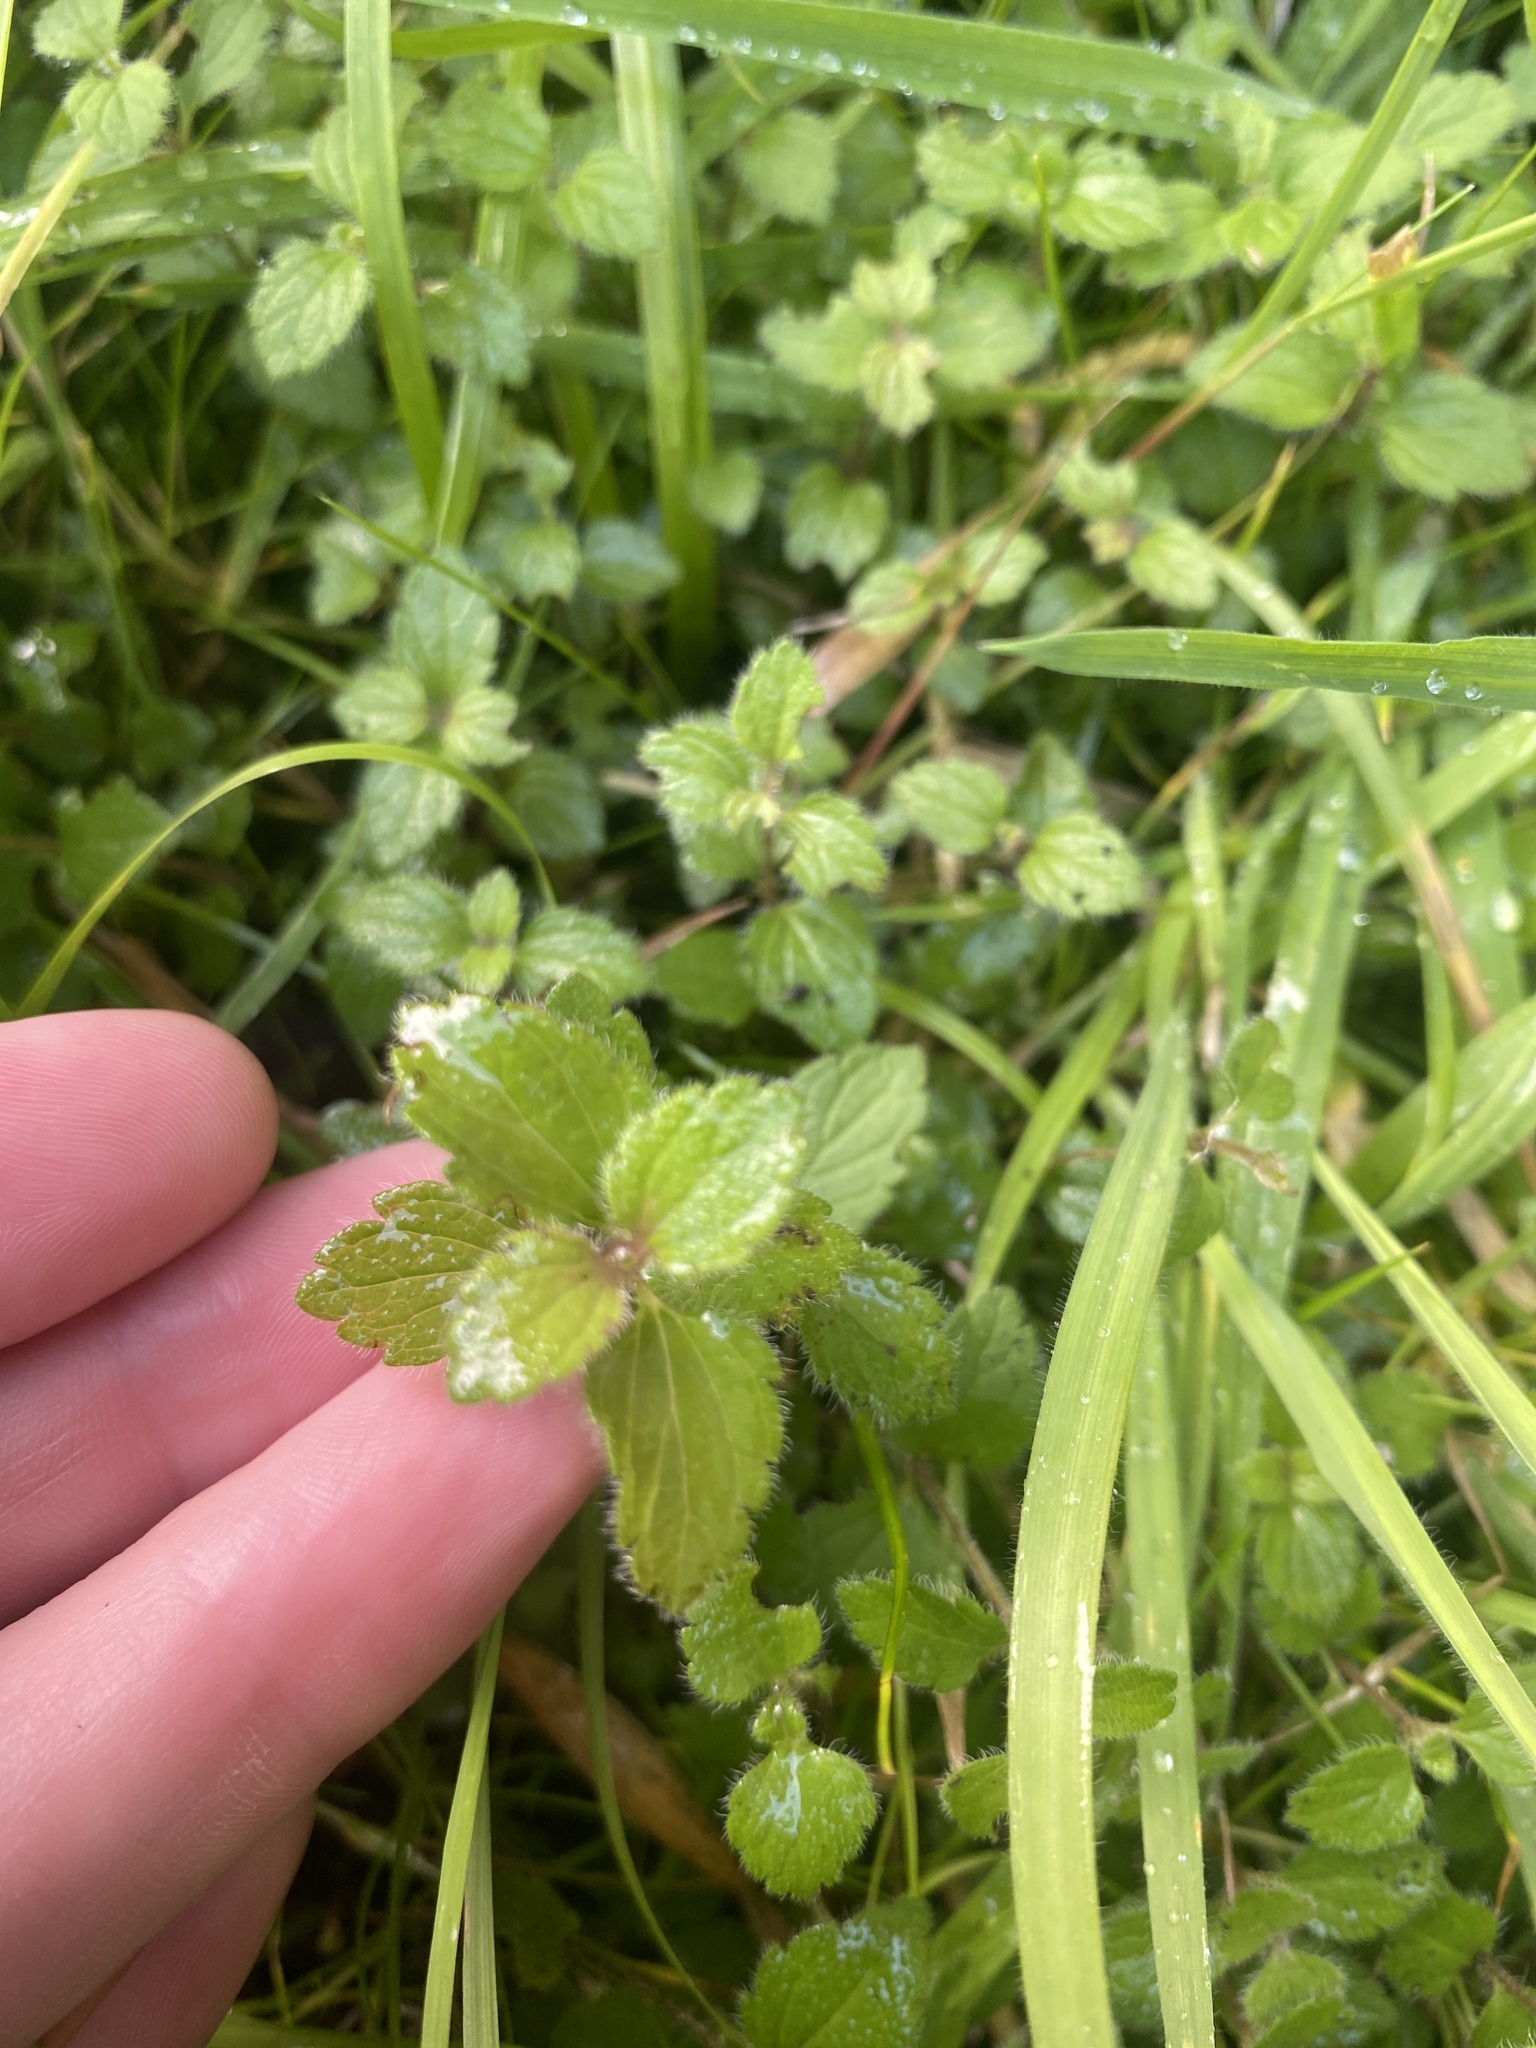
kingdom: Plantae
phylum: Tracheophyta
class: Magnoliopsida
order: Lamiales
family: Plantaginaceae
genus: Veronica
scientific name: Veronica chamaedrys
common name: Germander speedwell
